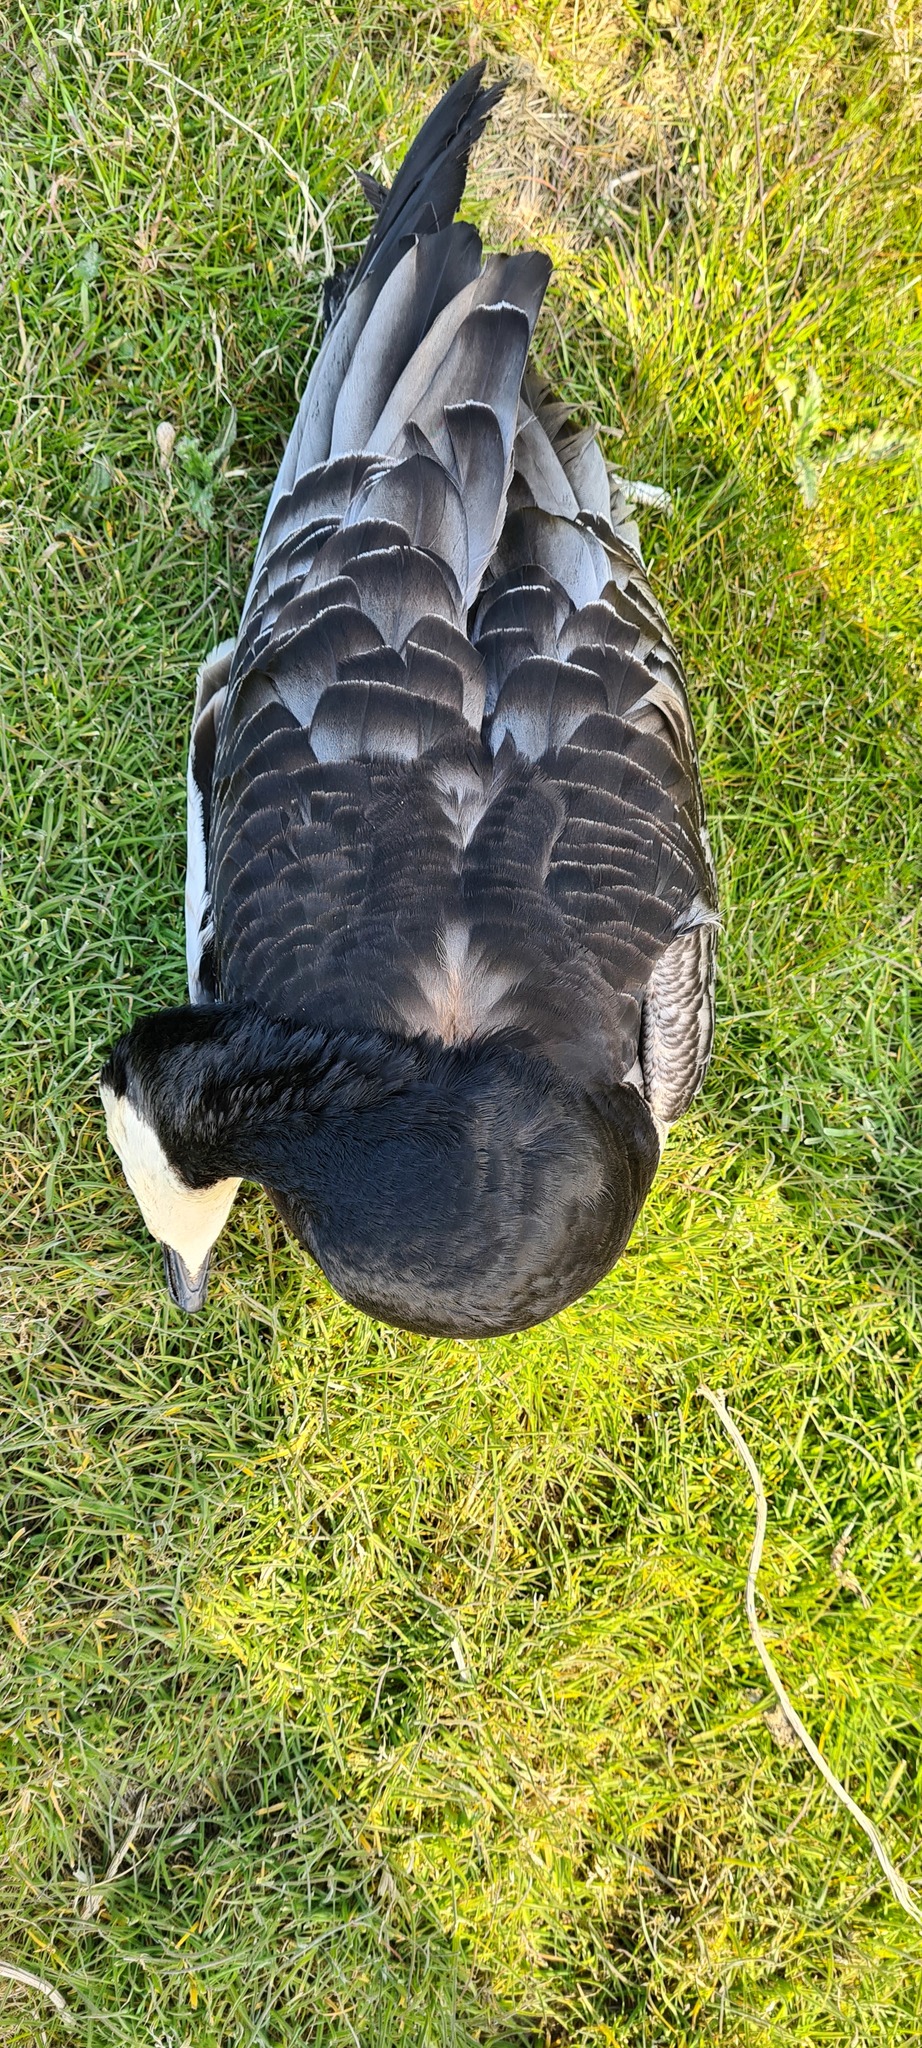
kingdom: Animalia
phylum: Chordata
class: Aves
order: Anseriformes
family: Anatidae
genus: Branta
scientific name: Branta leucopsis
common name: Barnacle goose
